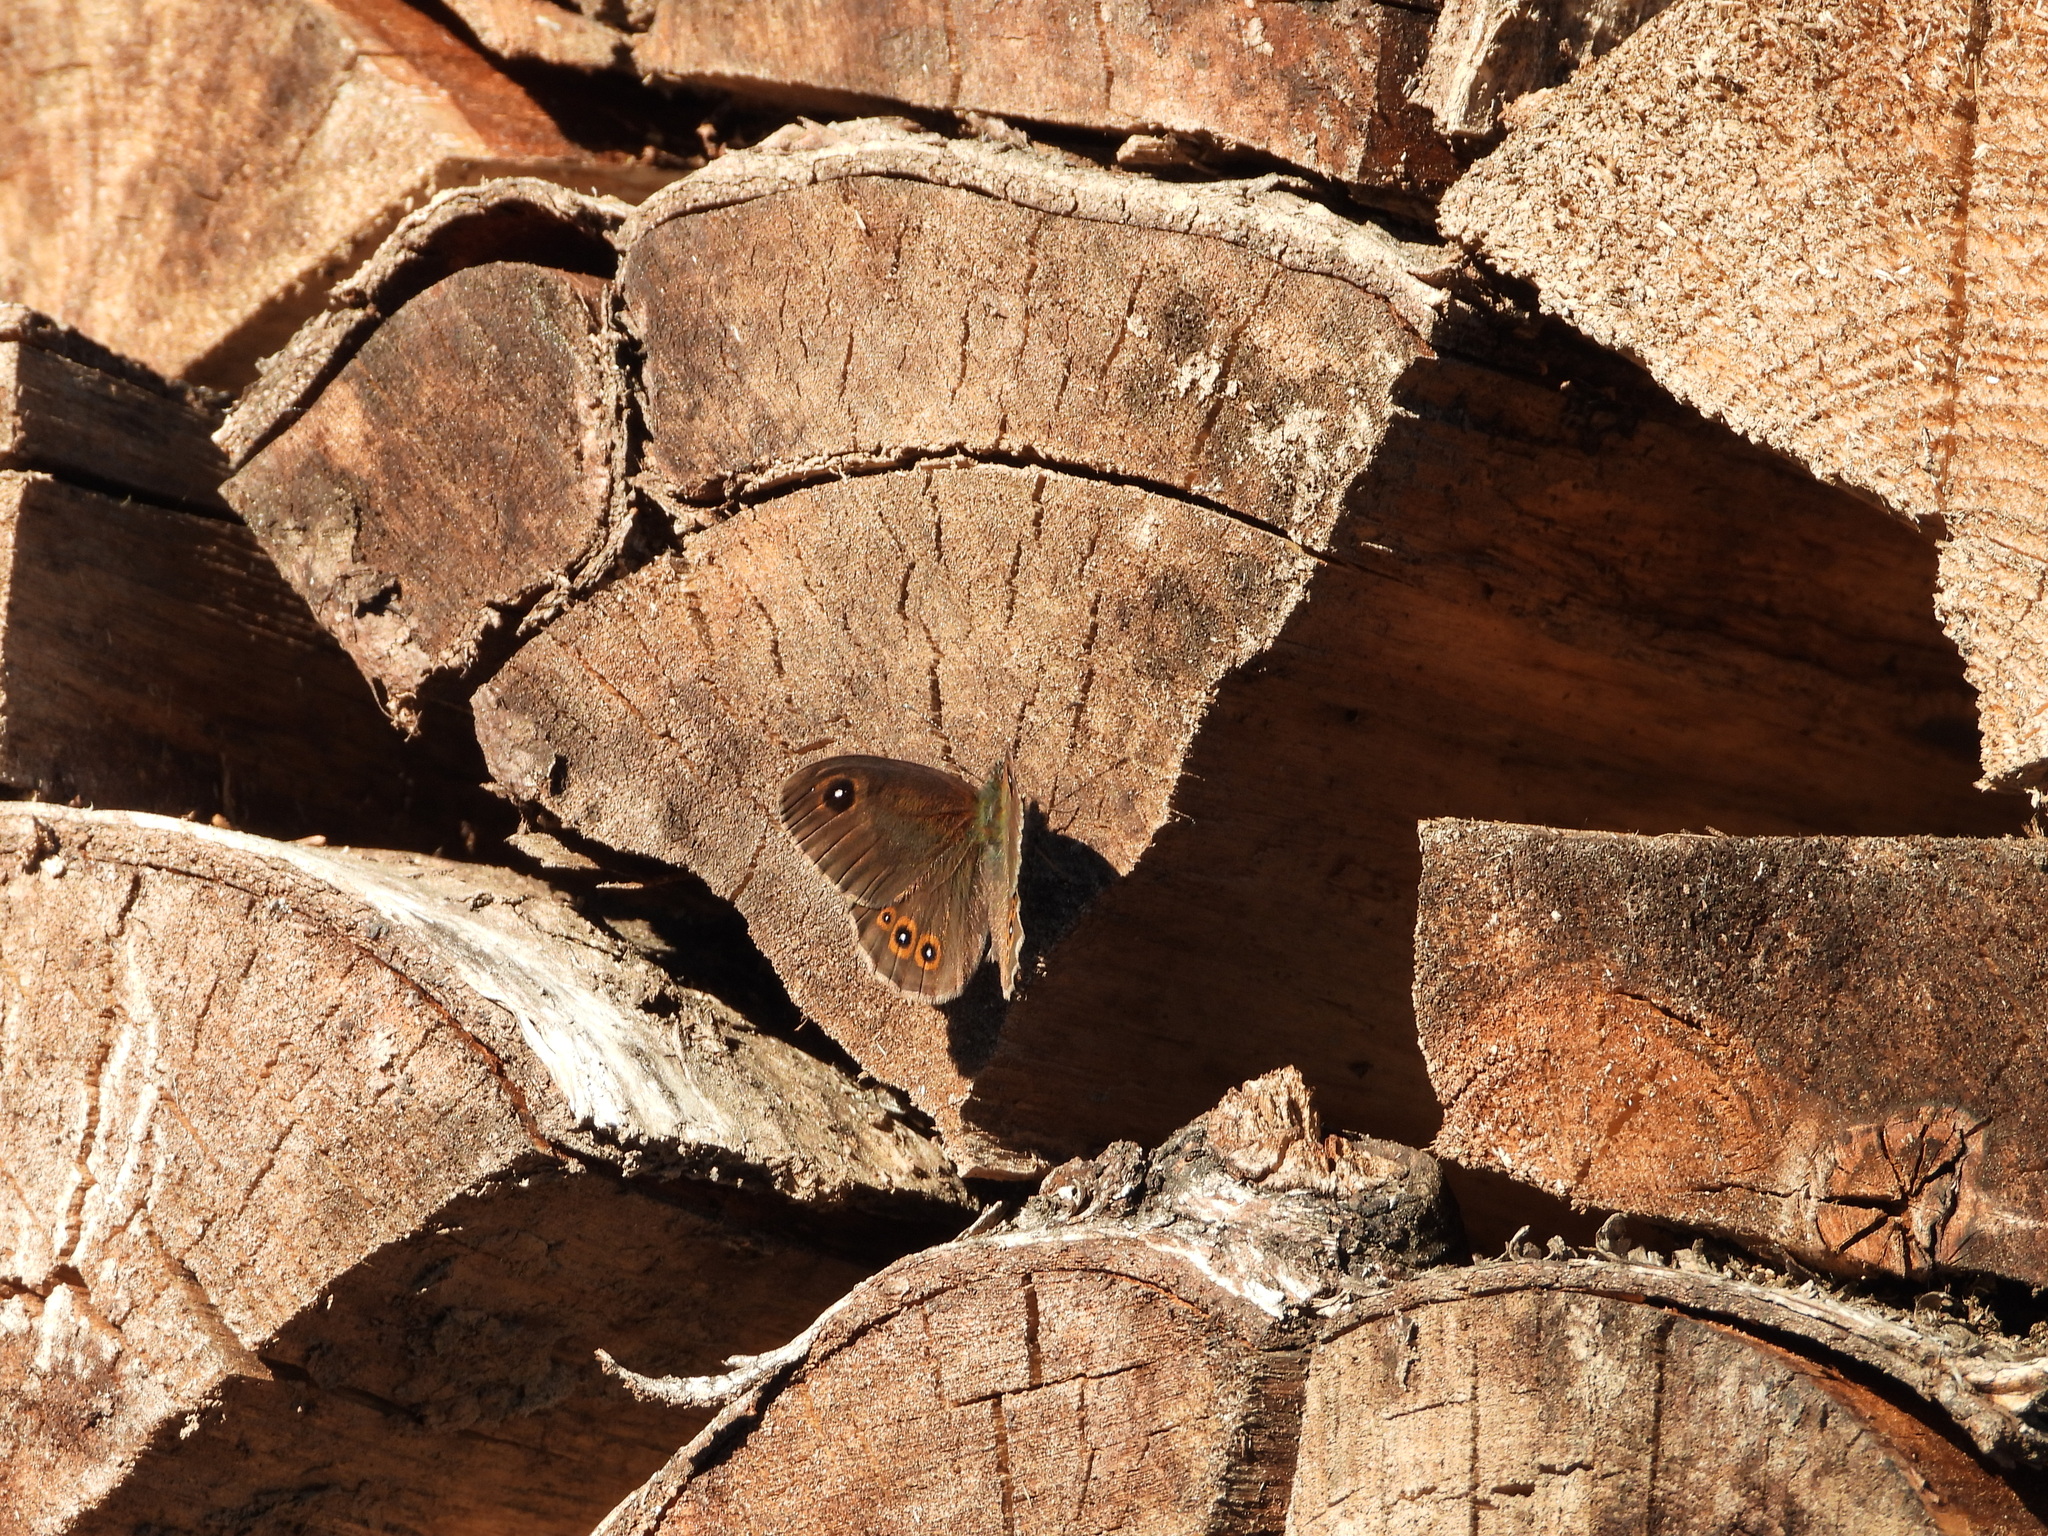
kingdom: Animalia
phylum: Arthropoda
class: Insecta
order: Lepidoptera
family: Nymphalidae
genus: Pararge
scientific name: Pararge Lasiommata maera
